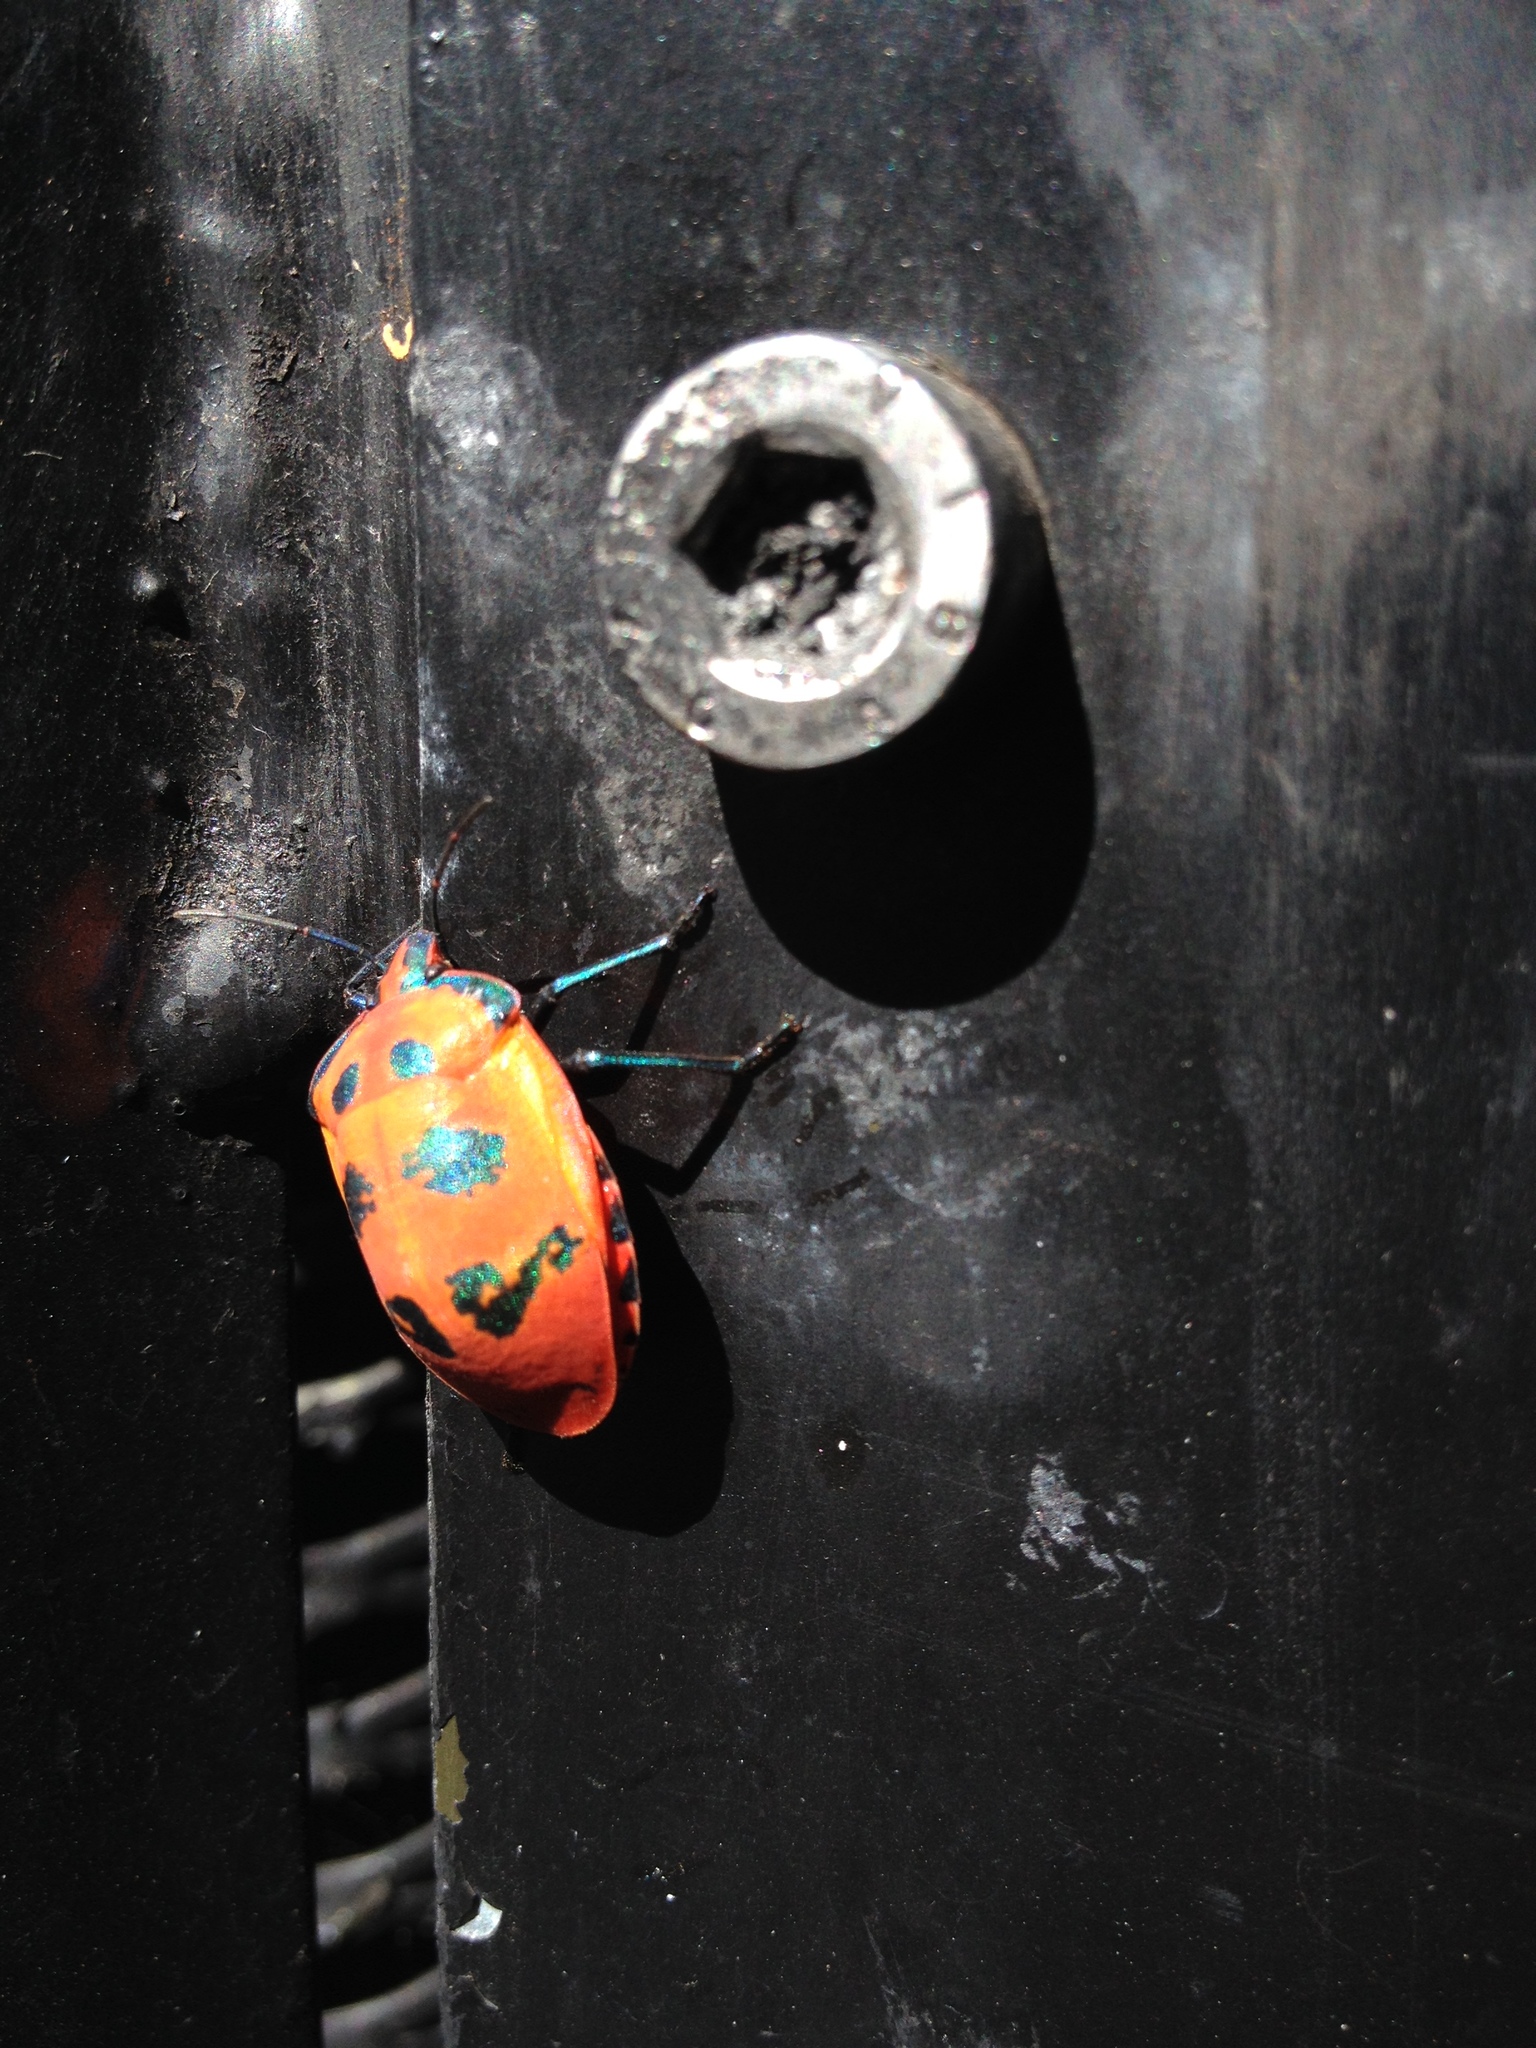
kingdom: Animalia
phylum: Arthropoda
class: Insecta
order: Hemiptera
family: Scutelleridae
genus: Tectocoris
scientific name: Tectocoris diophthalmus
